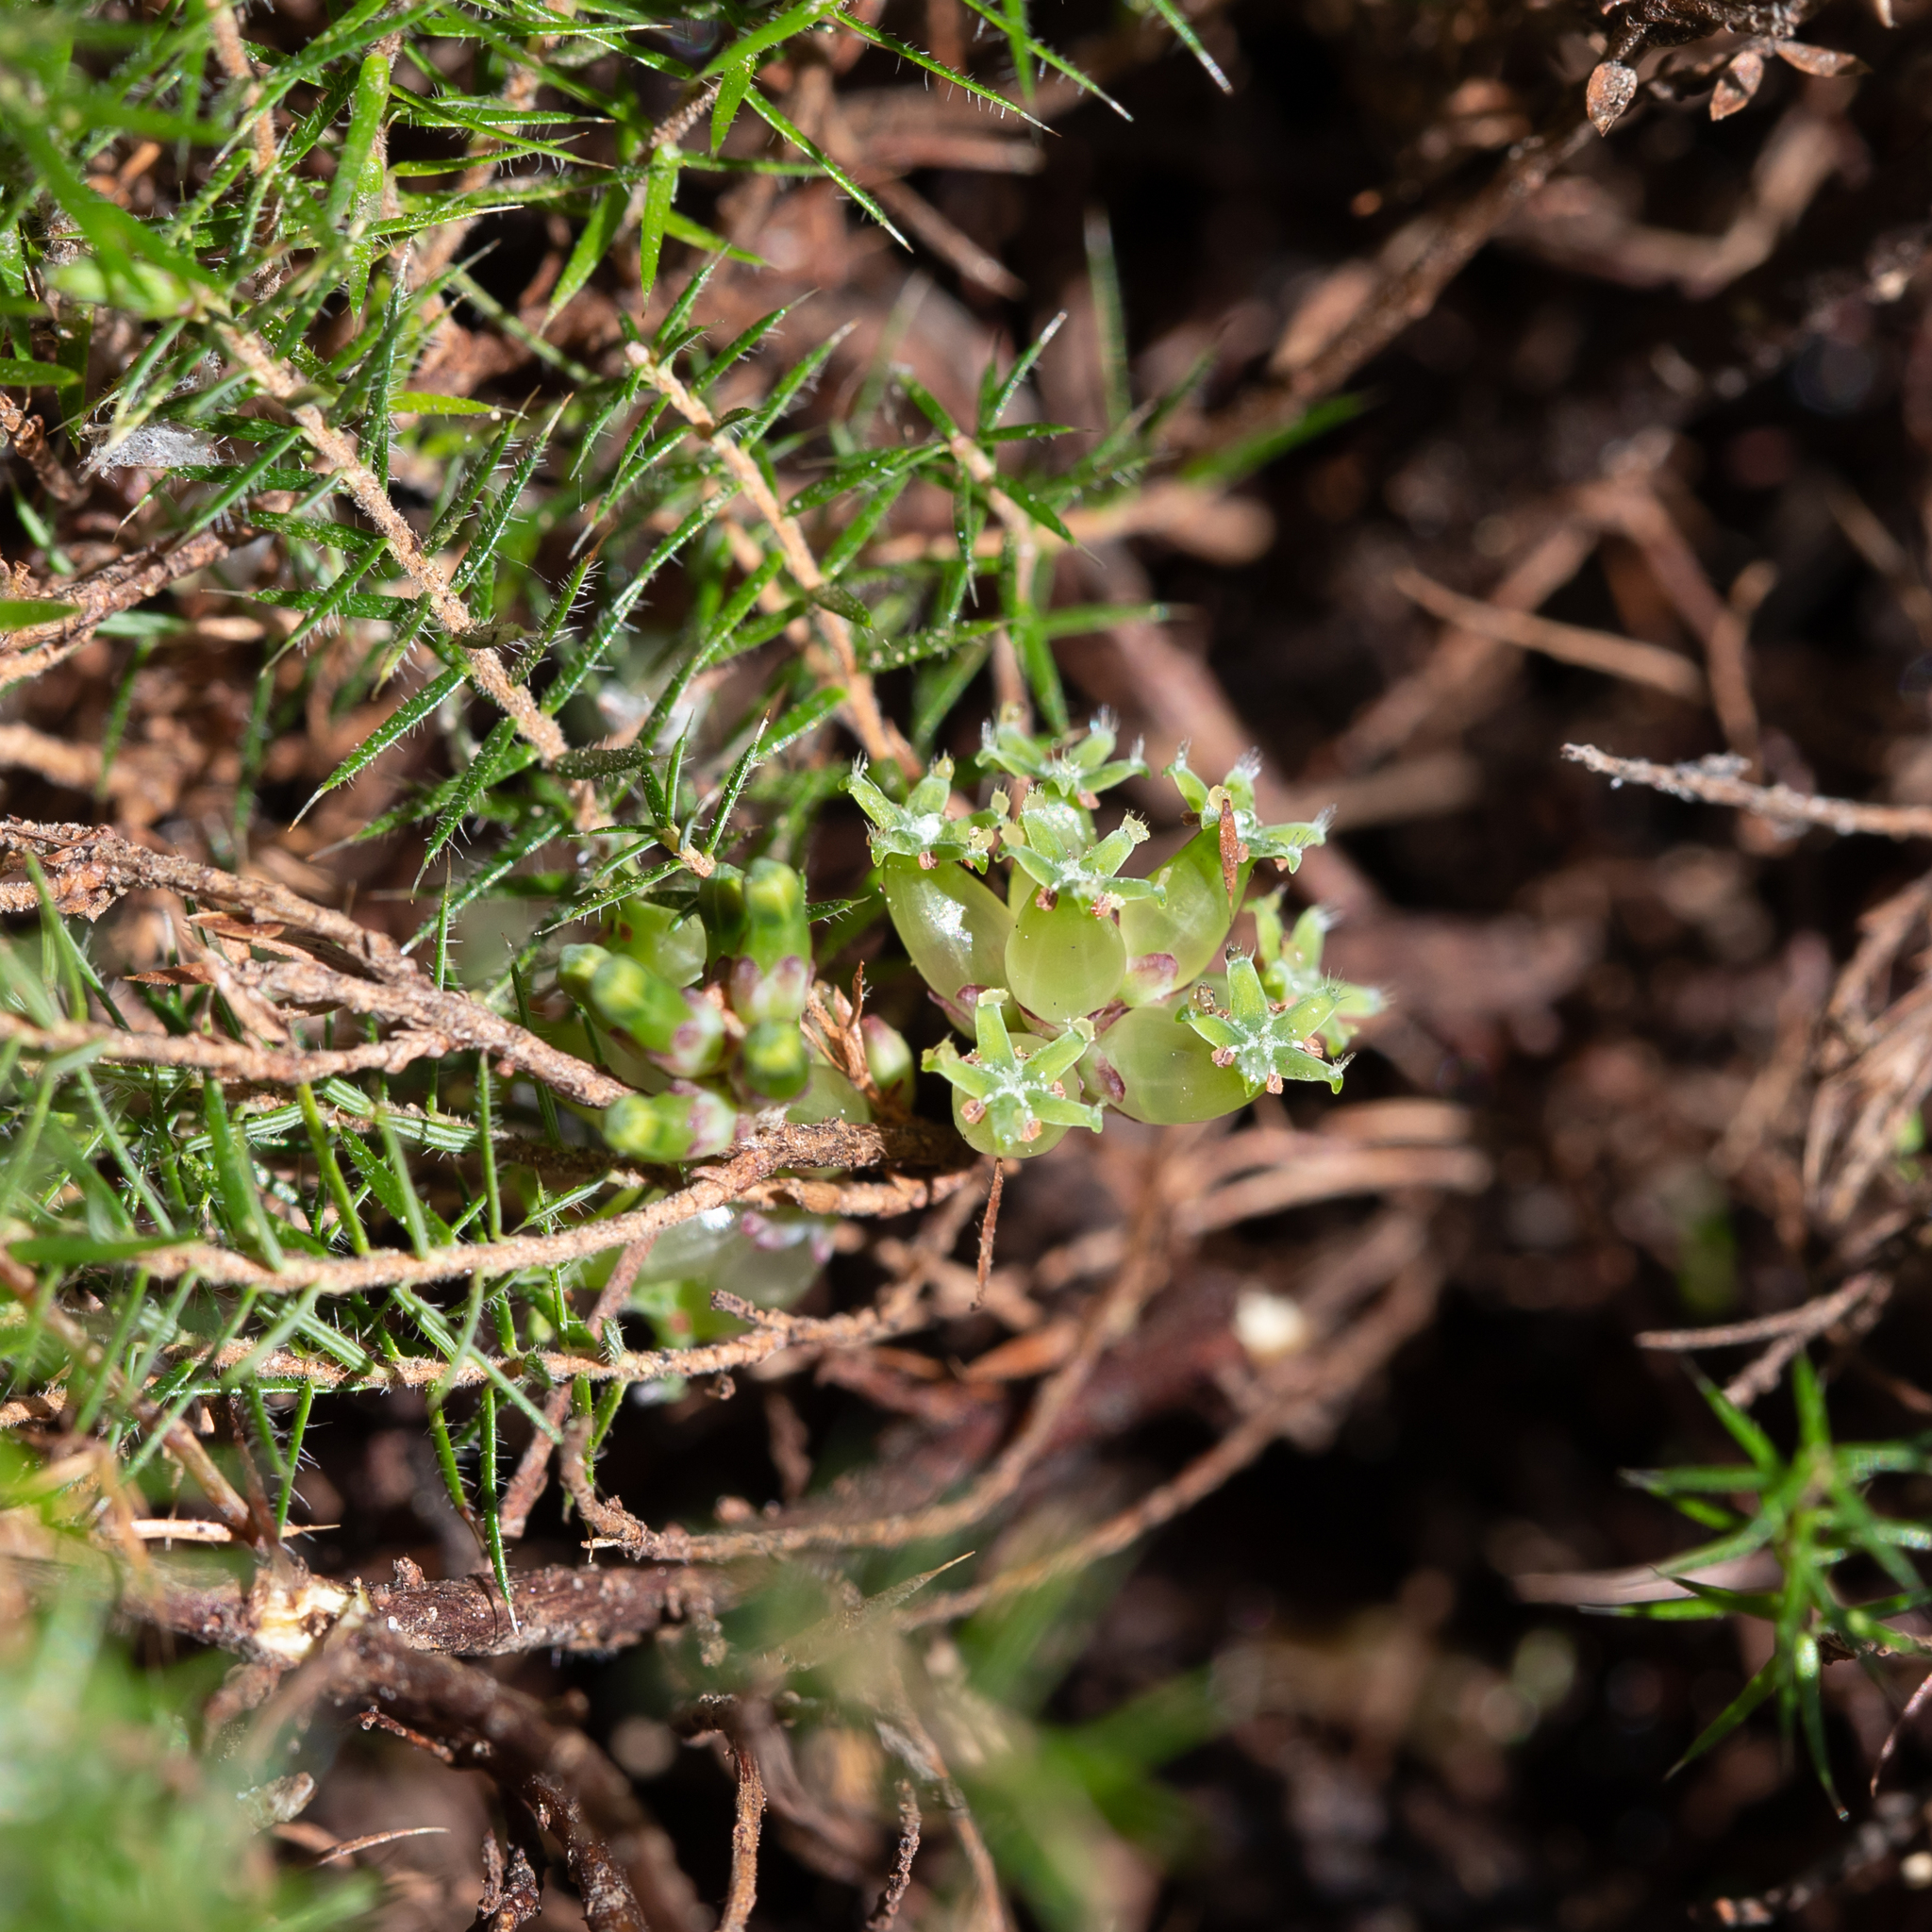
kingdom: Plantae
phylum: Tracheophyta
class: Magnoliopsida
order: Ericales
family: Ericaceae
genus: Acrotriche
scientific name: Acrotriche serrulata
